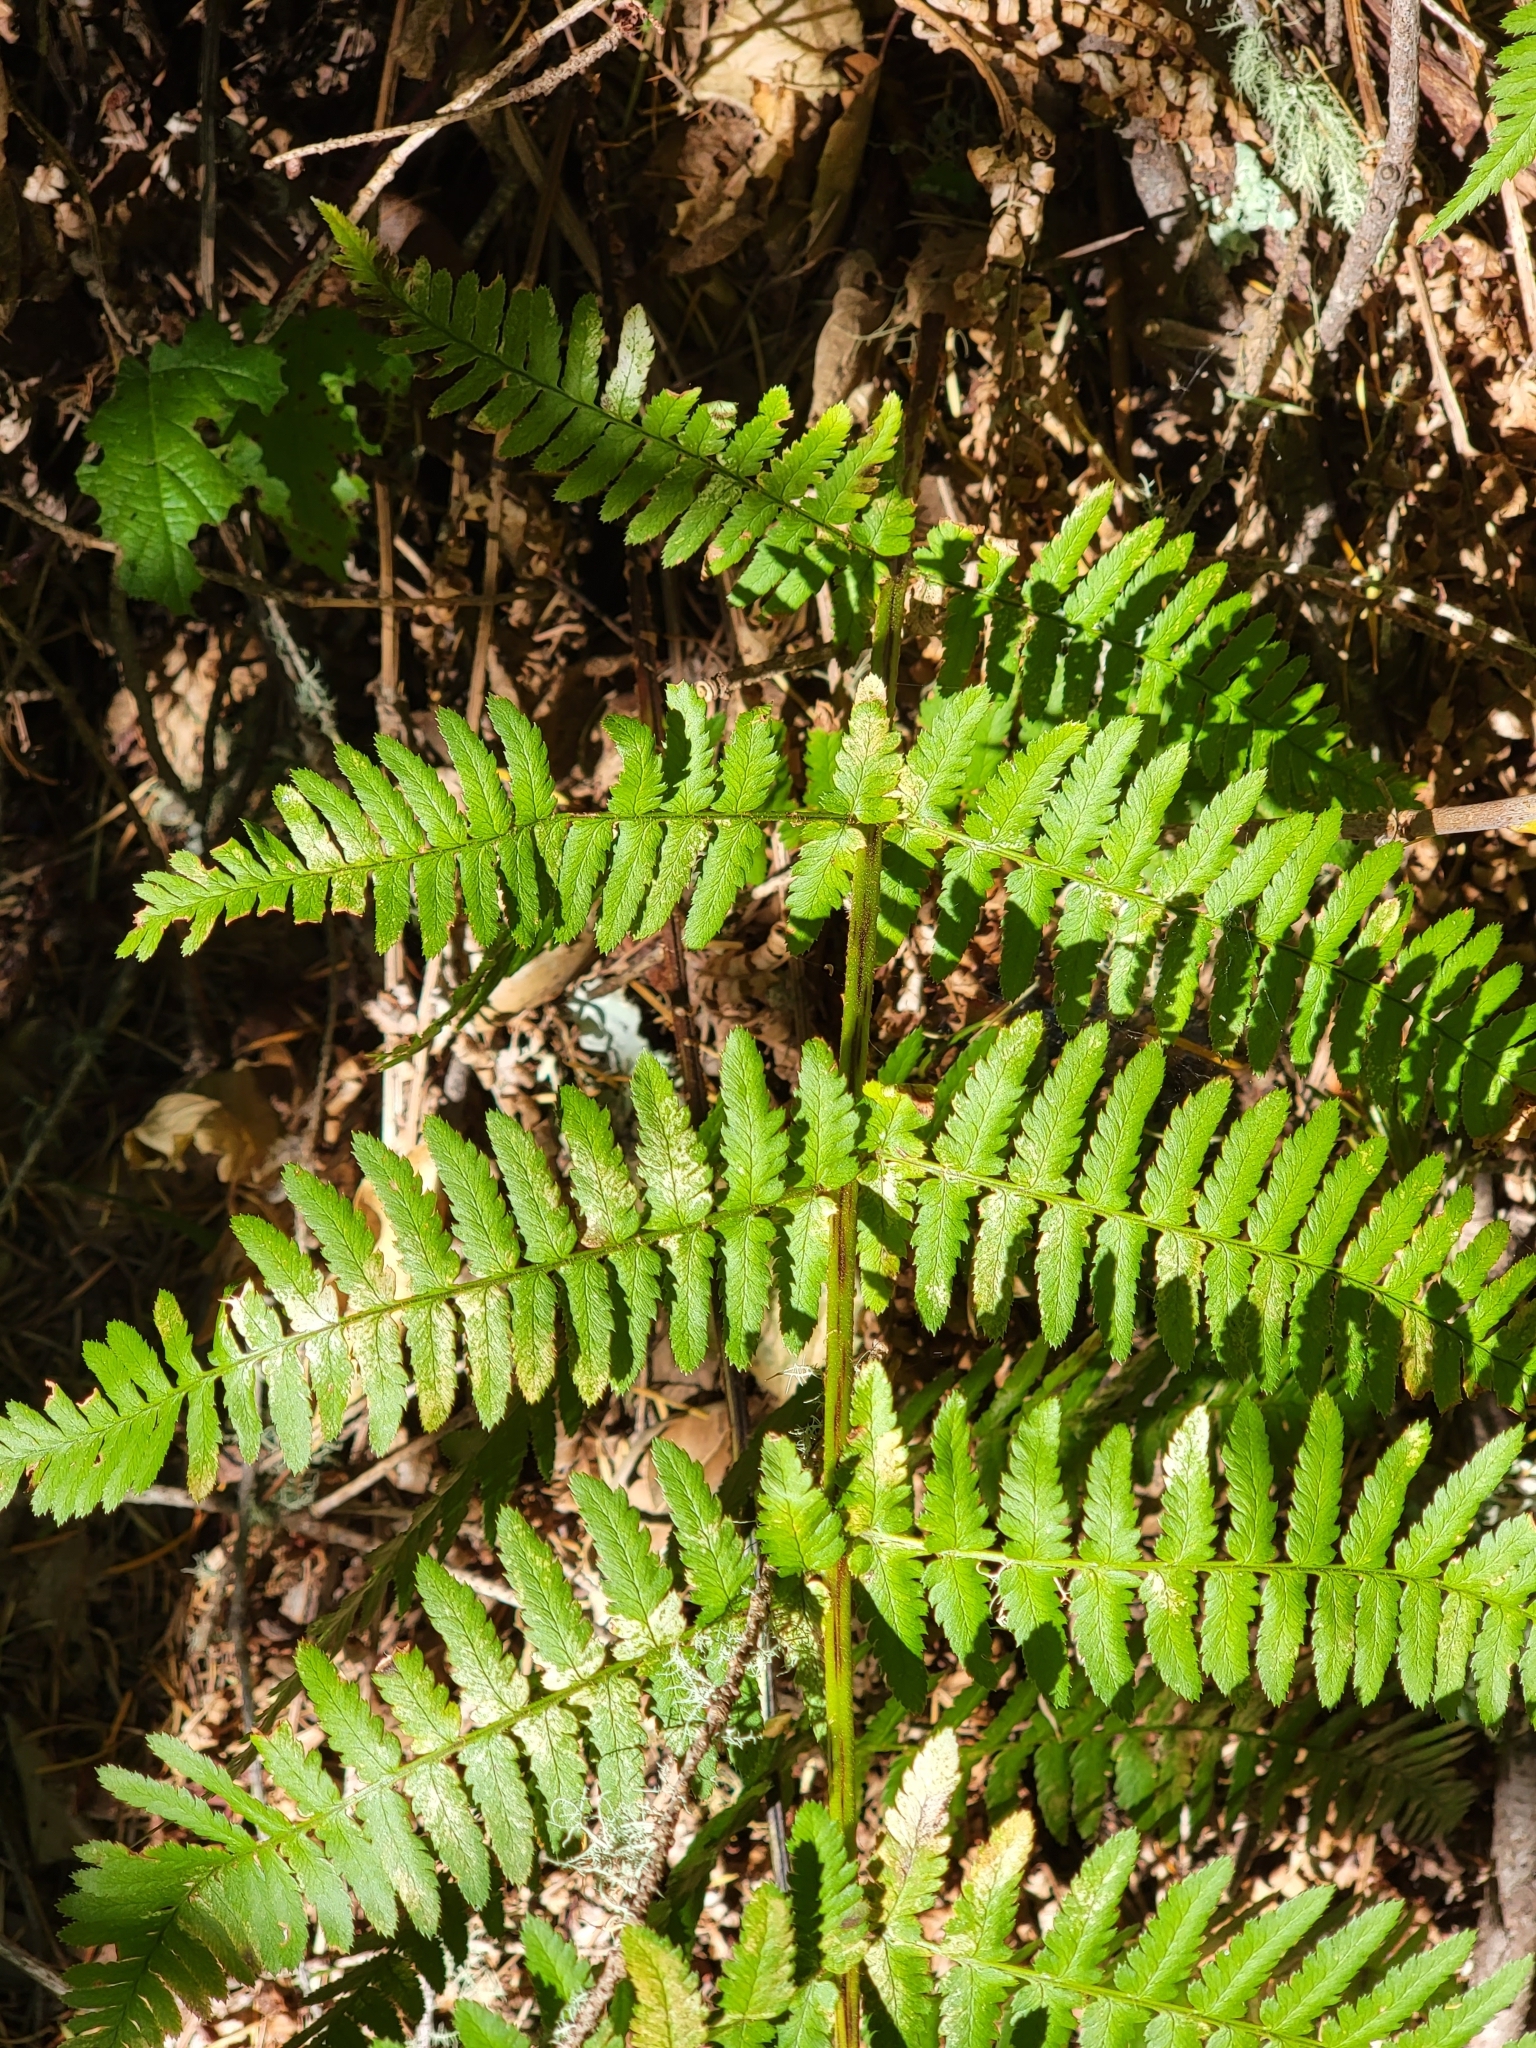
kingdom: Plantae
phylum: Tracheophyta
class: Polypodiopsida
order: Polypodiales
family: Dryopteridaceae
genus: Dryopteris
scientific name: Dryopteris arguta
